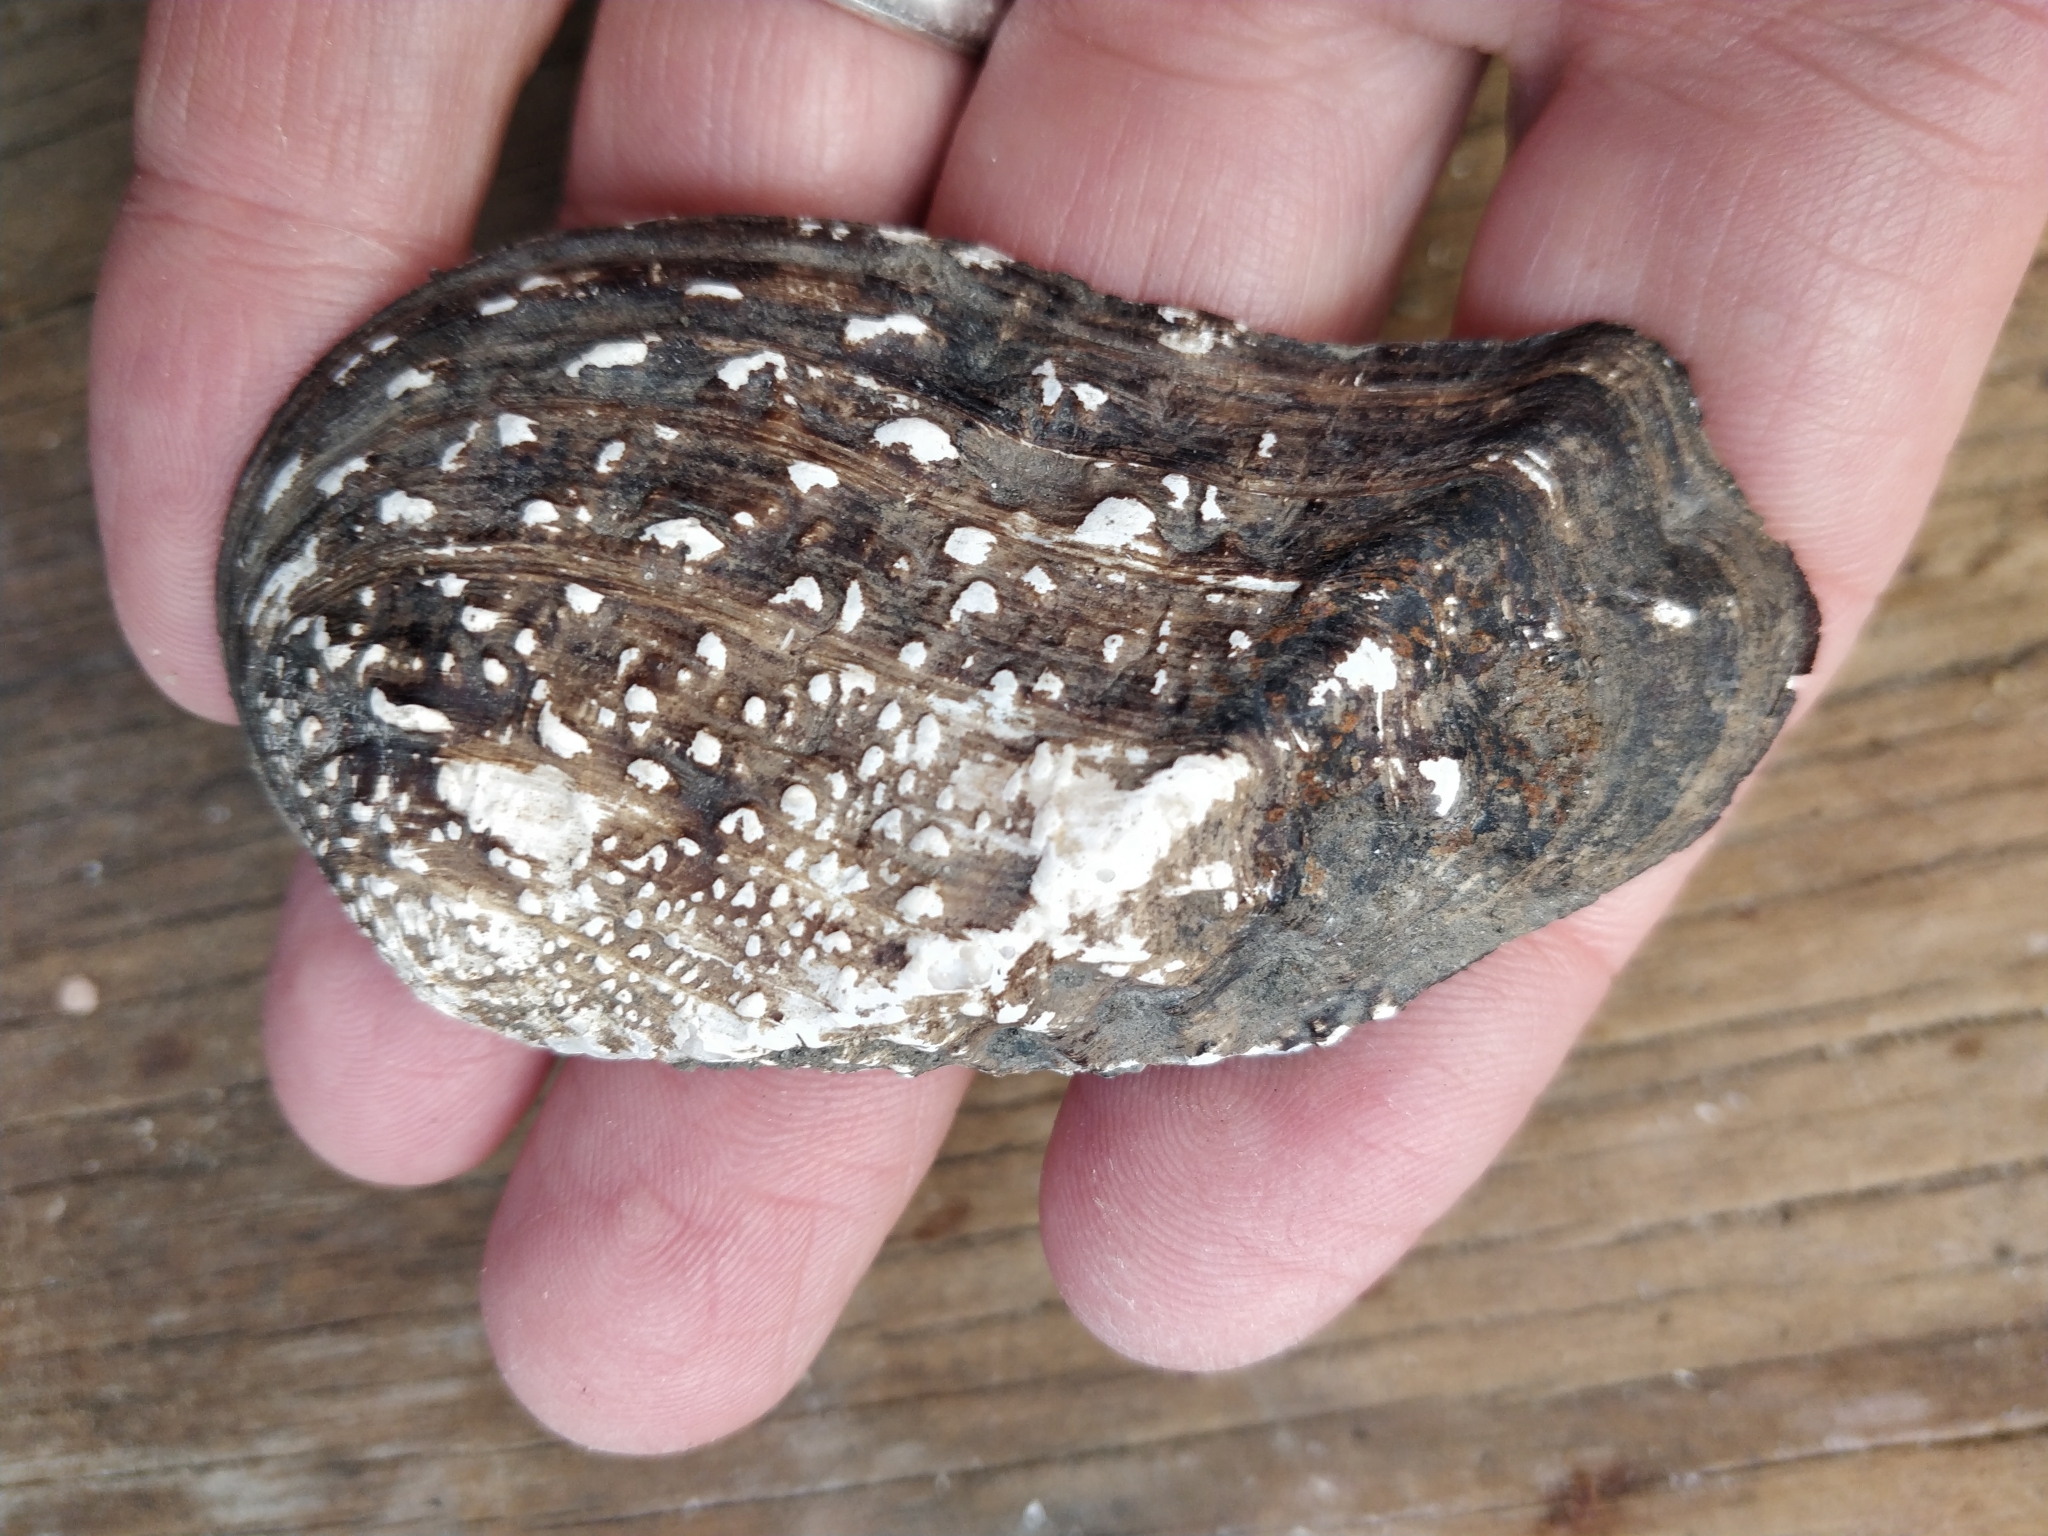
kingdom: Animalia
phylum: Mollusca
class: Bivalvia
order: Unionida
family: Unionidae
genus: Tritogonia
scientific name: Tritogonia verrucosa
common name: Pistolgrip
